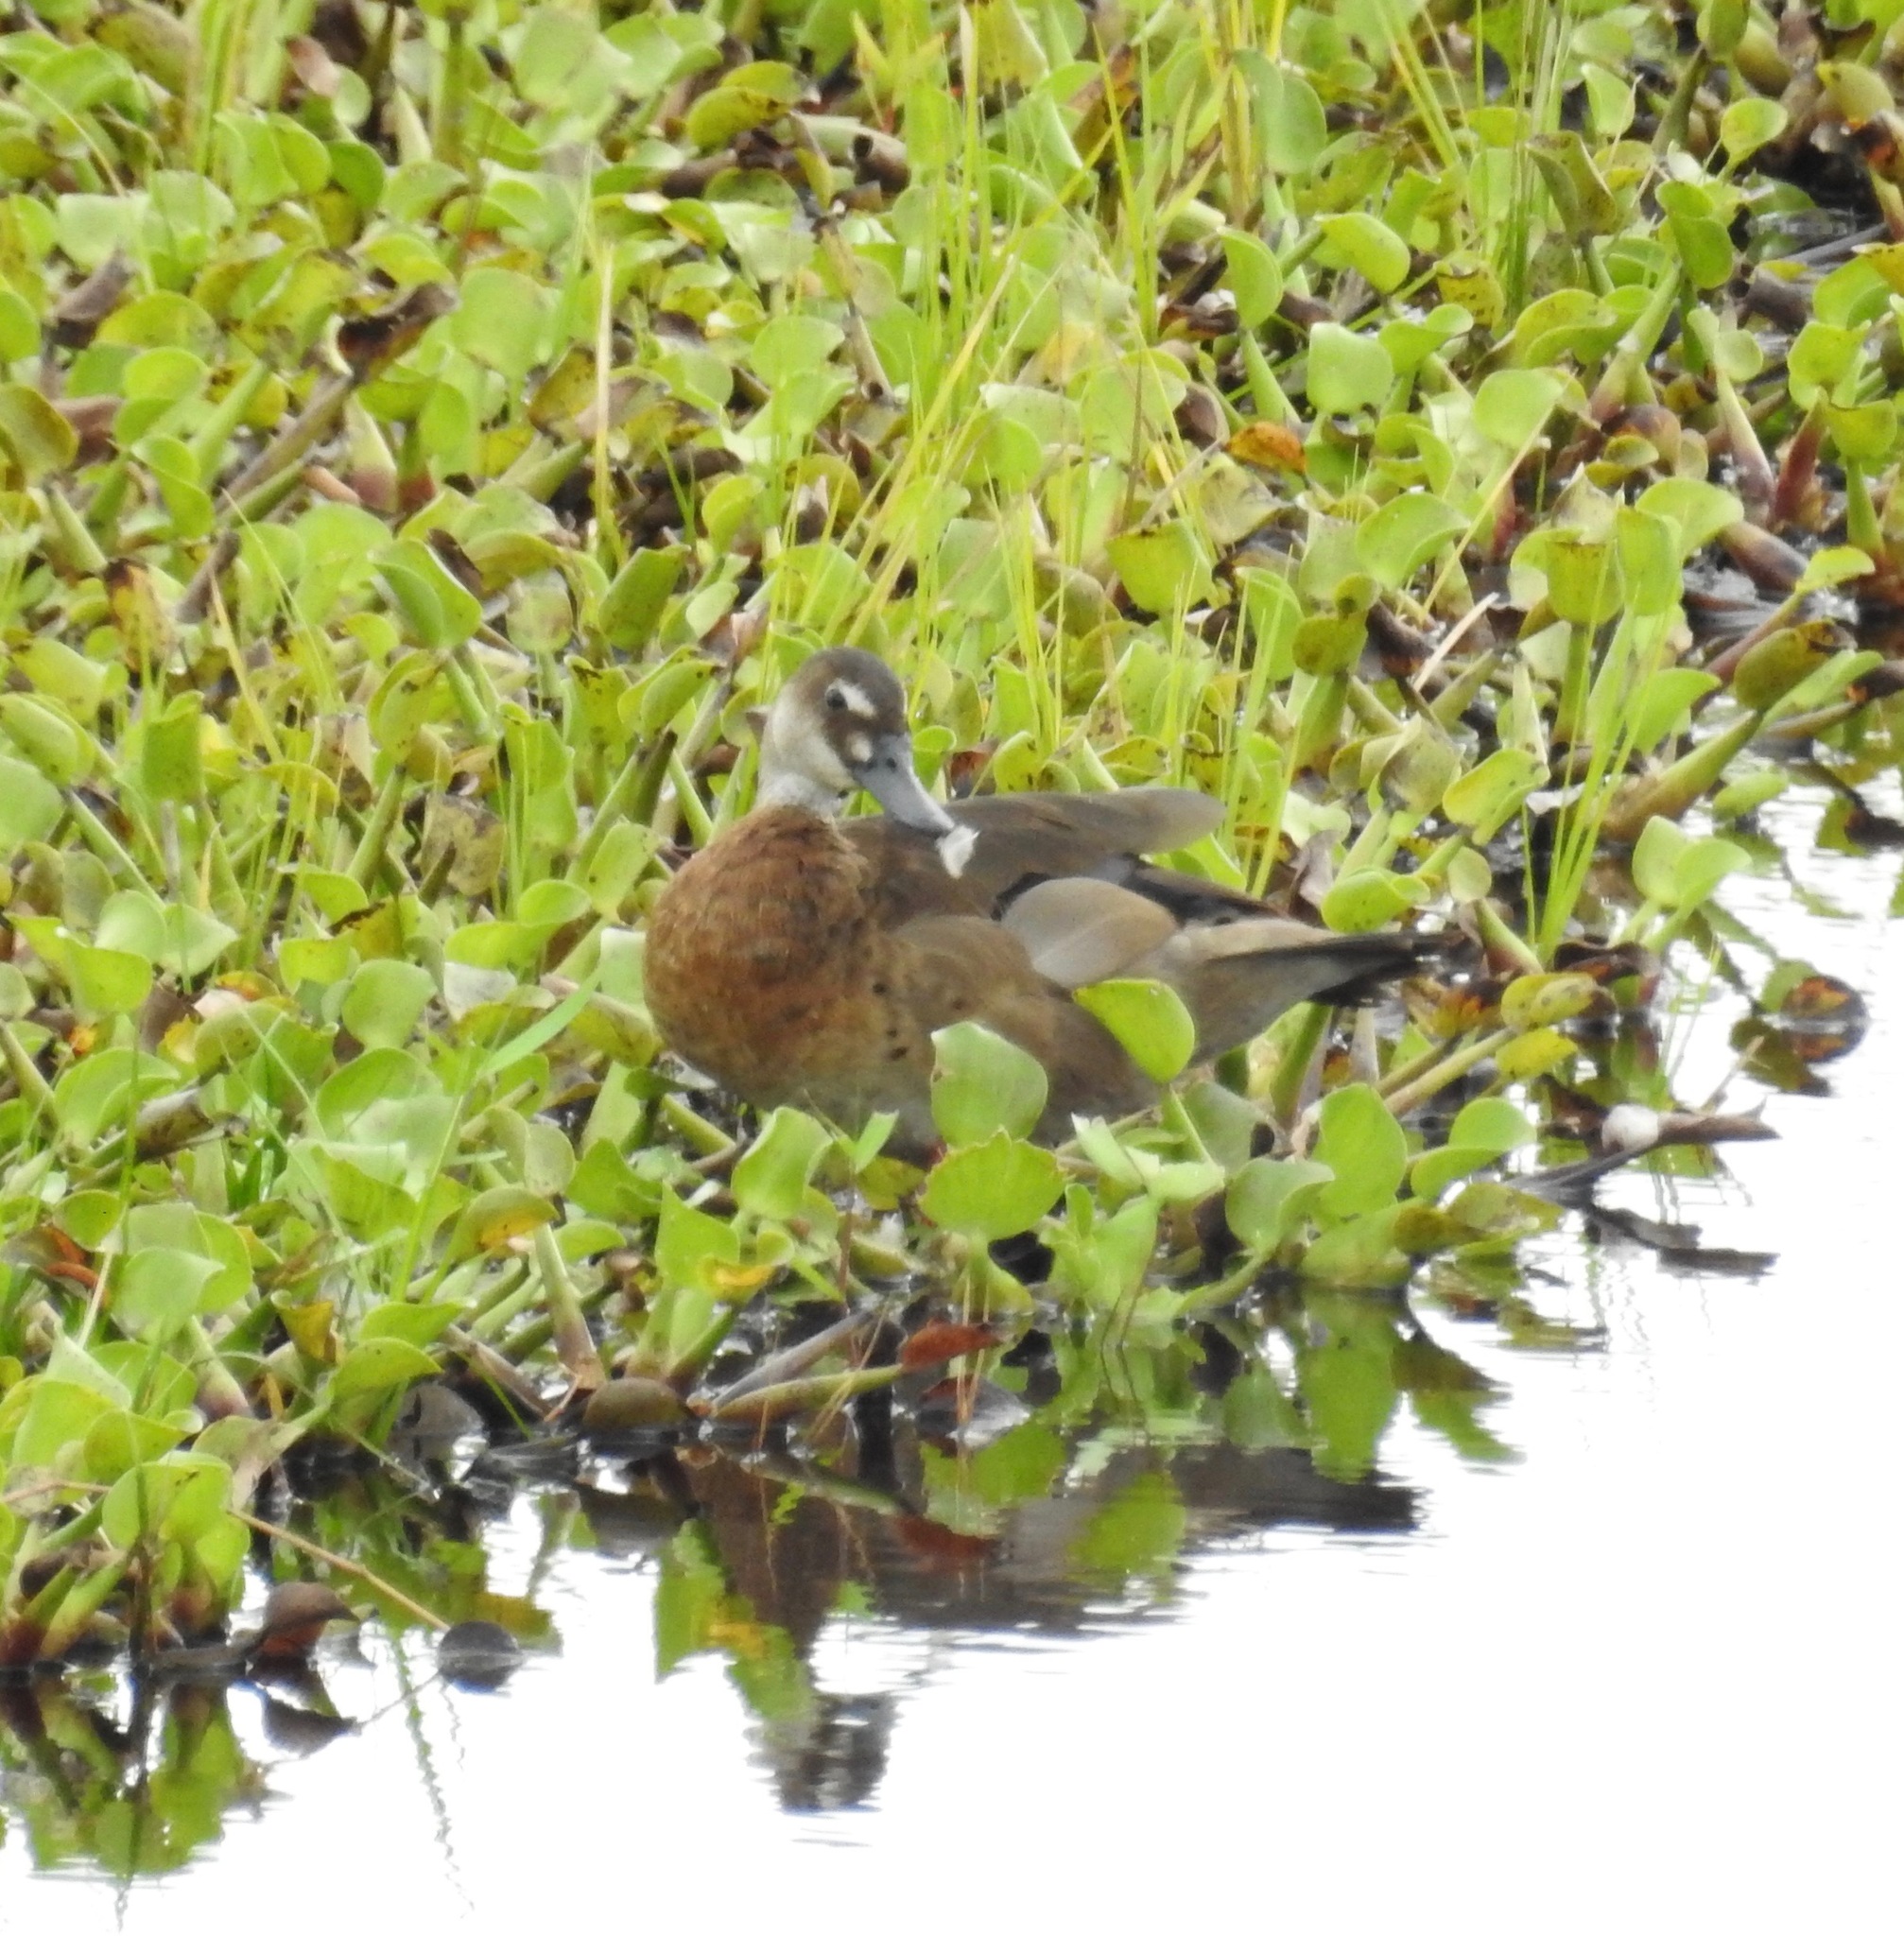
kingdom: Animalia
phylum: Chordata
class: Aves
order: Anseriformes
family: Anatidae
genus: Amazonetta
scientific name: Amazonetta brasiliensis
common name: Brazilian teal
